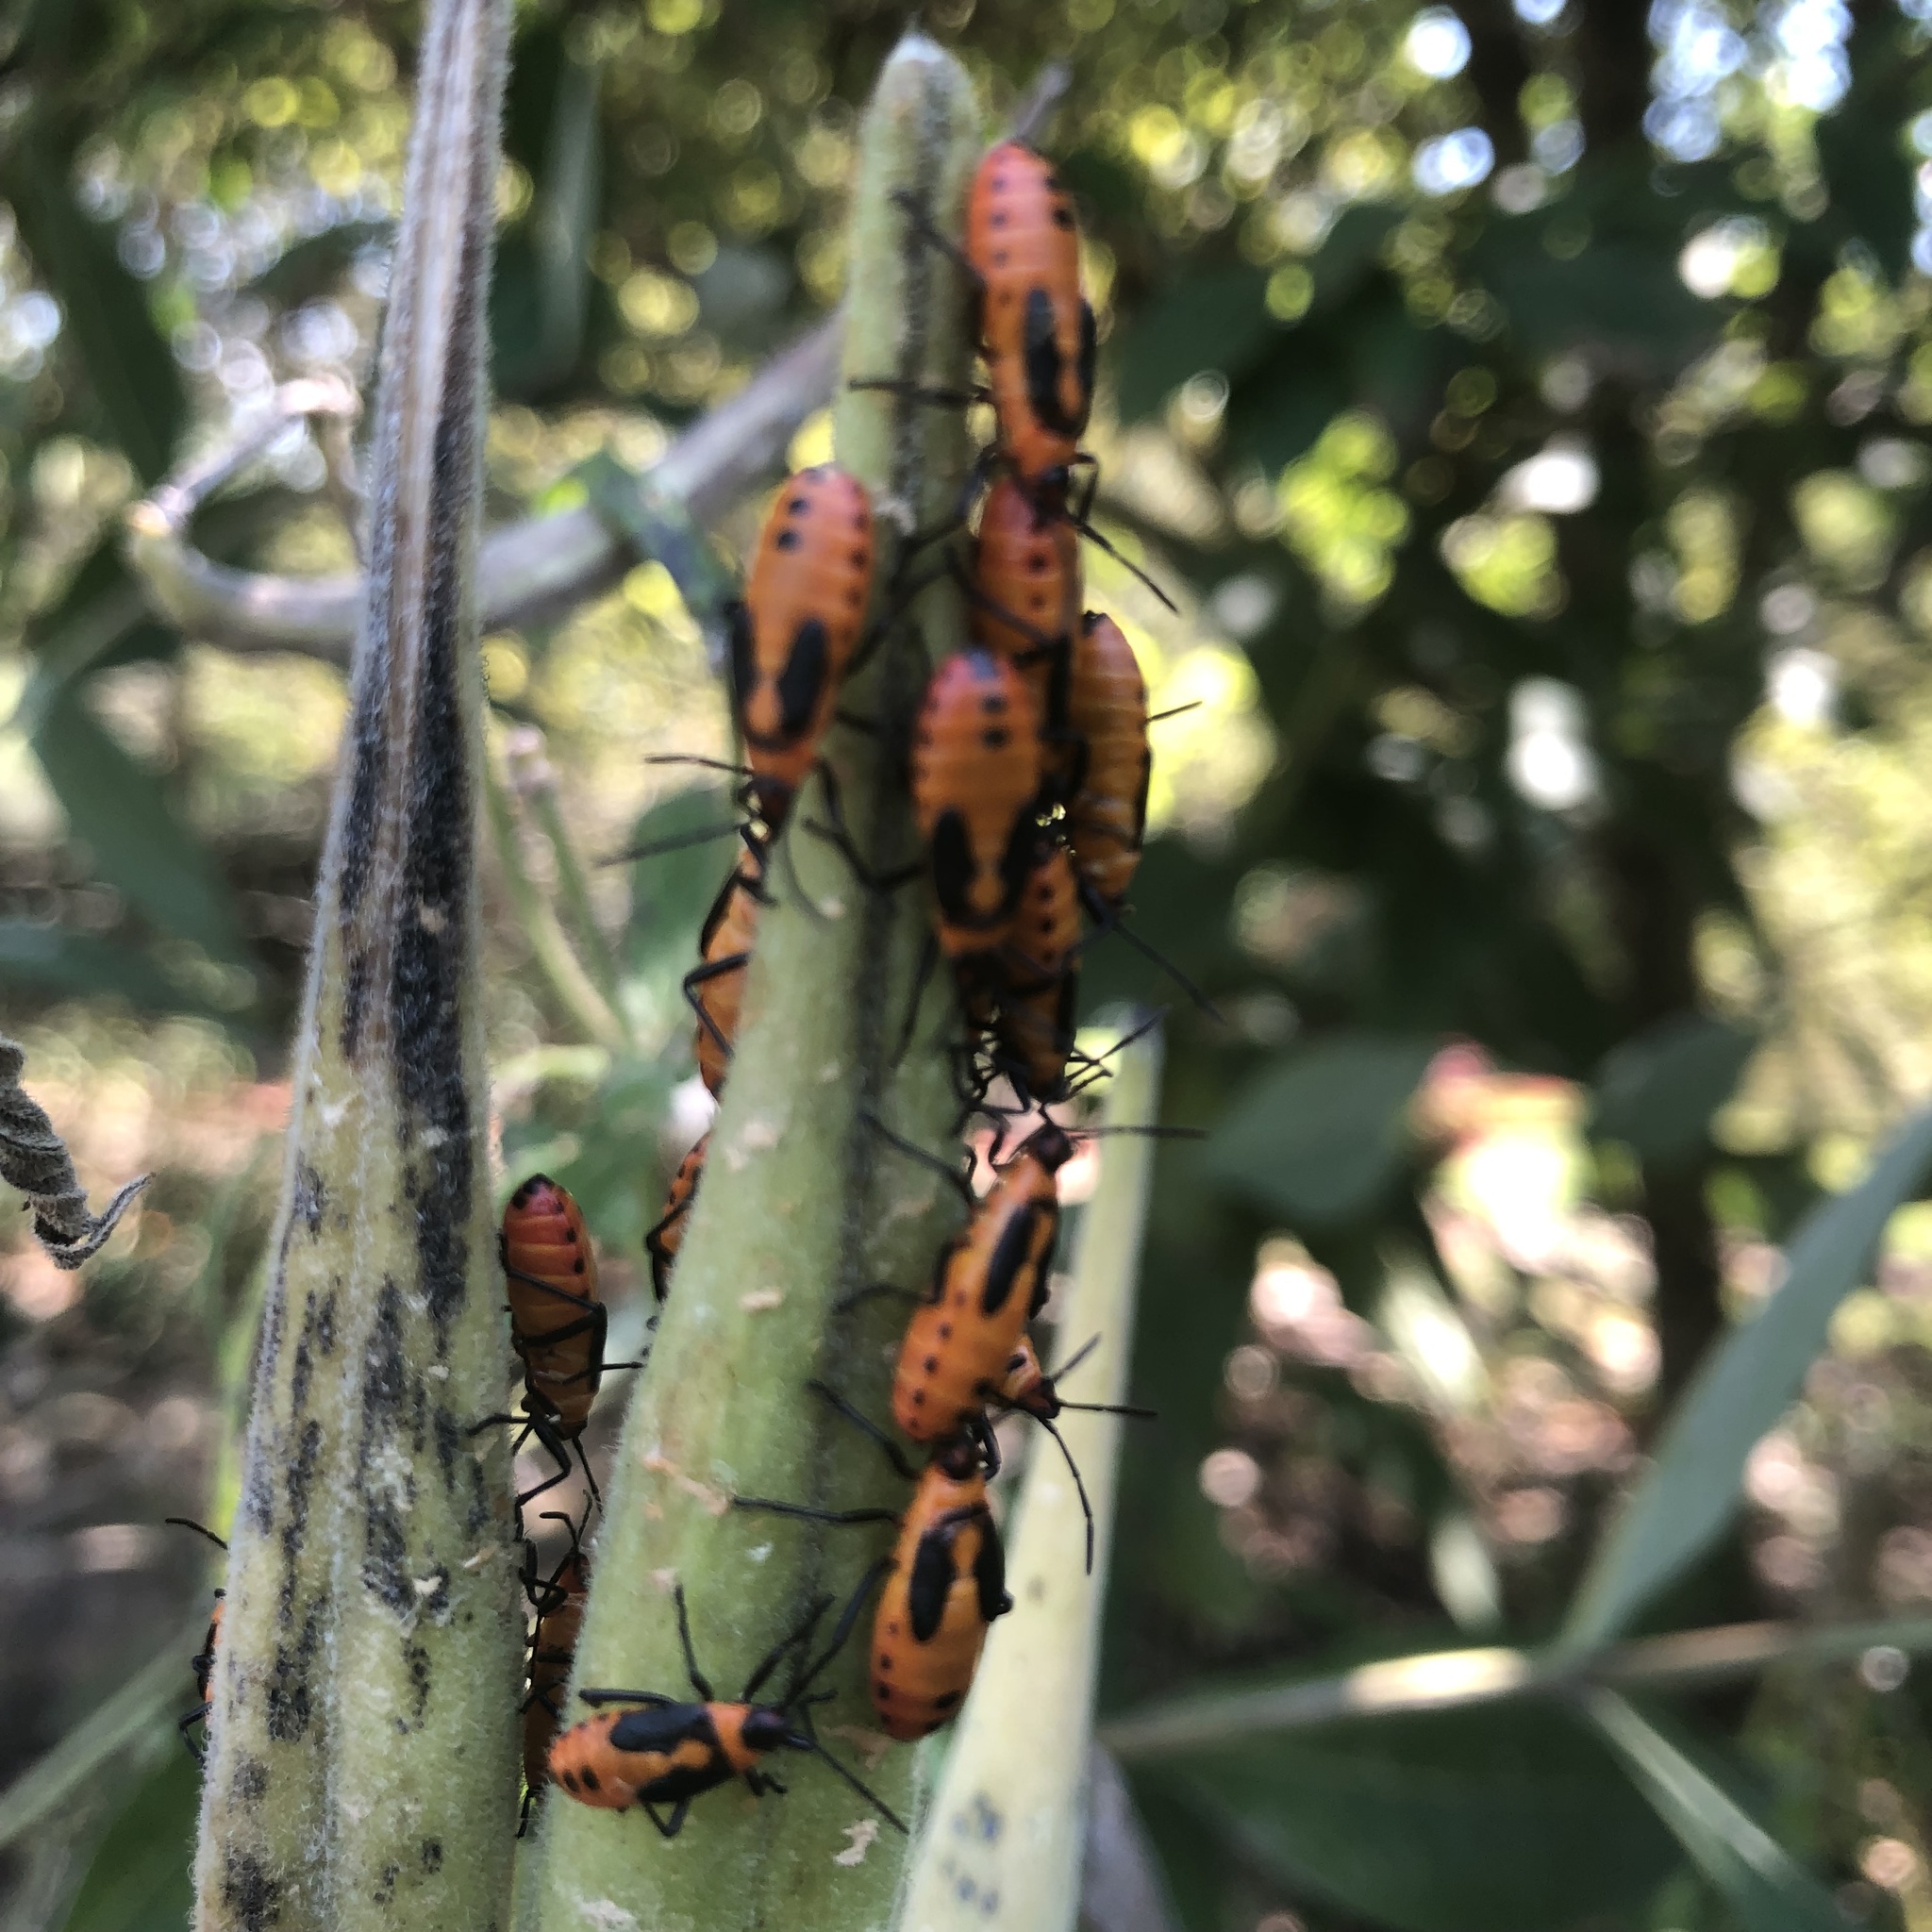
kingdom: Animalia
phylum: Arthropoda
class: Insecta
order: Hemiptera
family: Lygaeidae
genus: Oncopeltus
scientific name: Oncopeltus fasciatus
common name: Large milkweed bug
